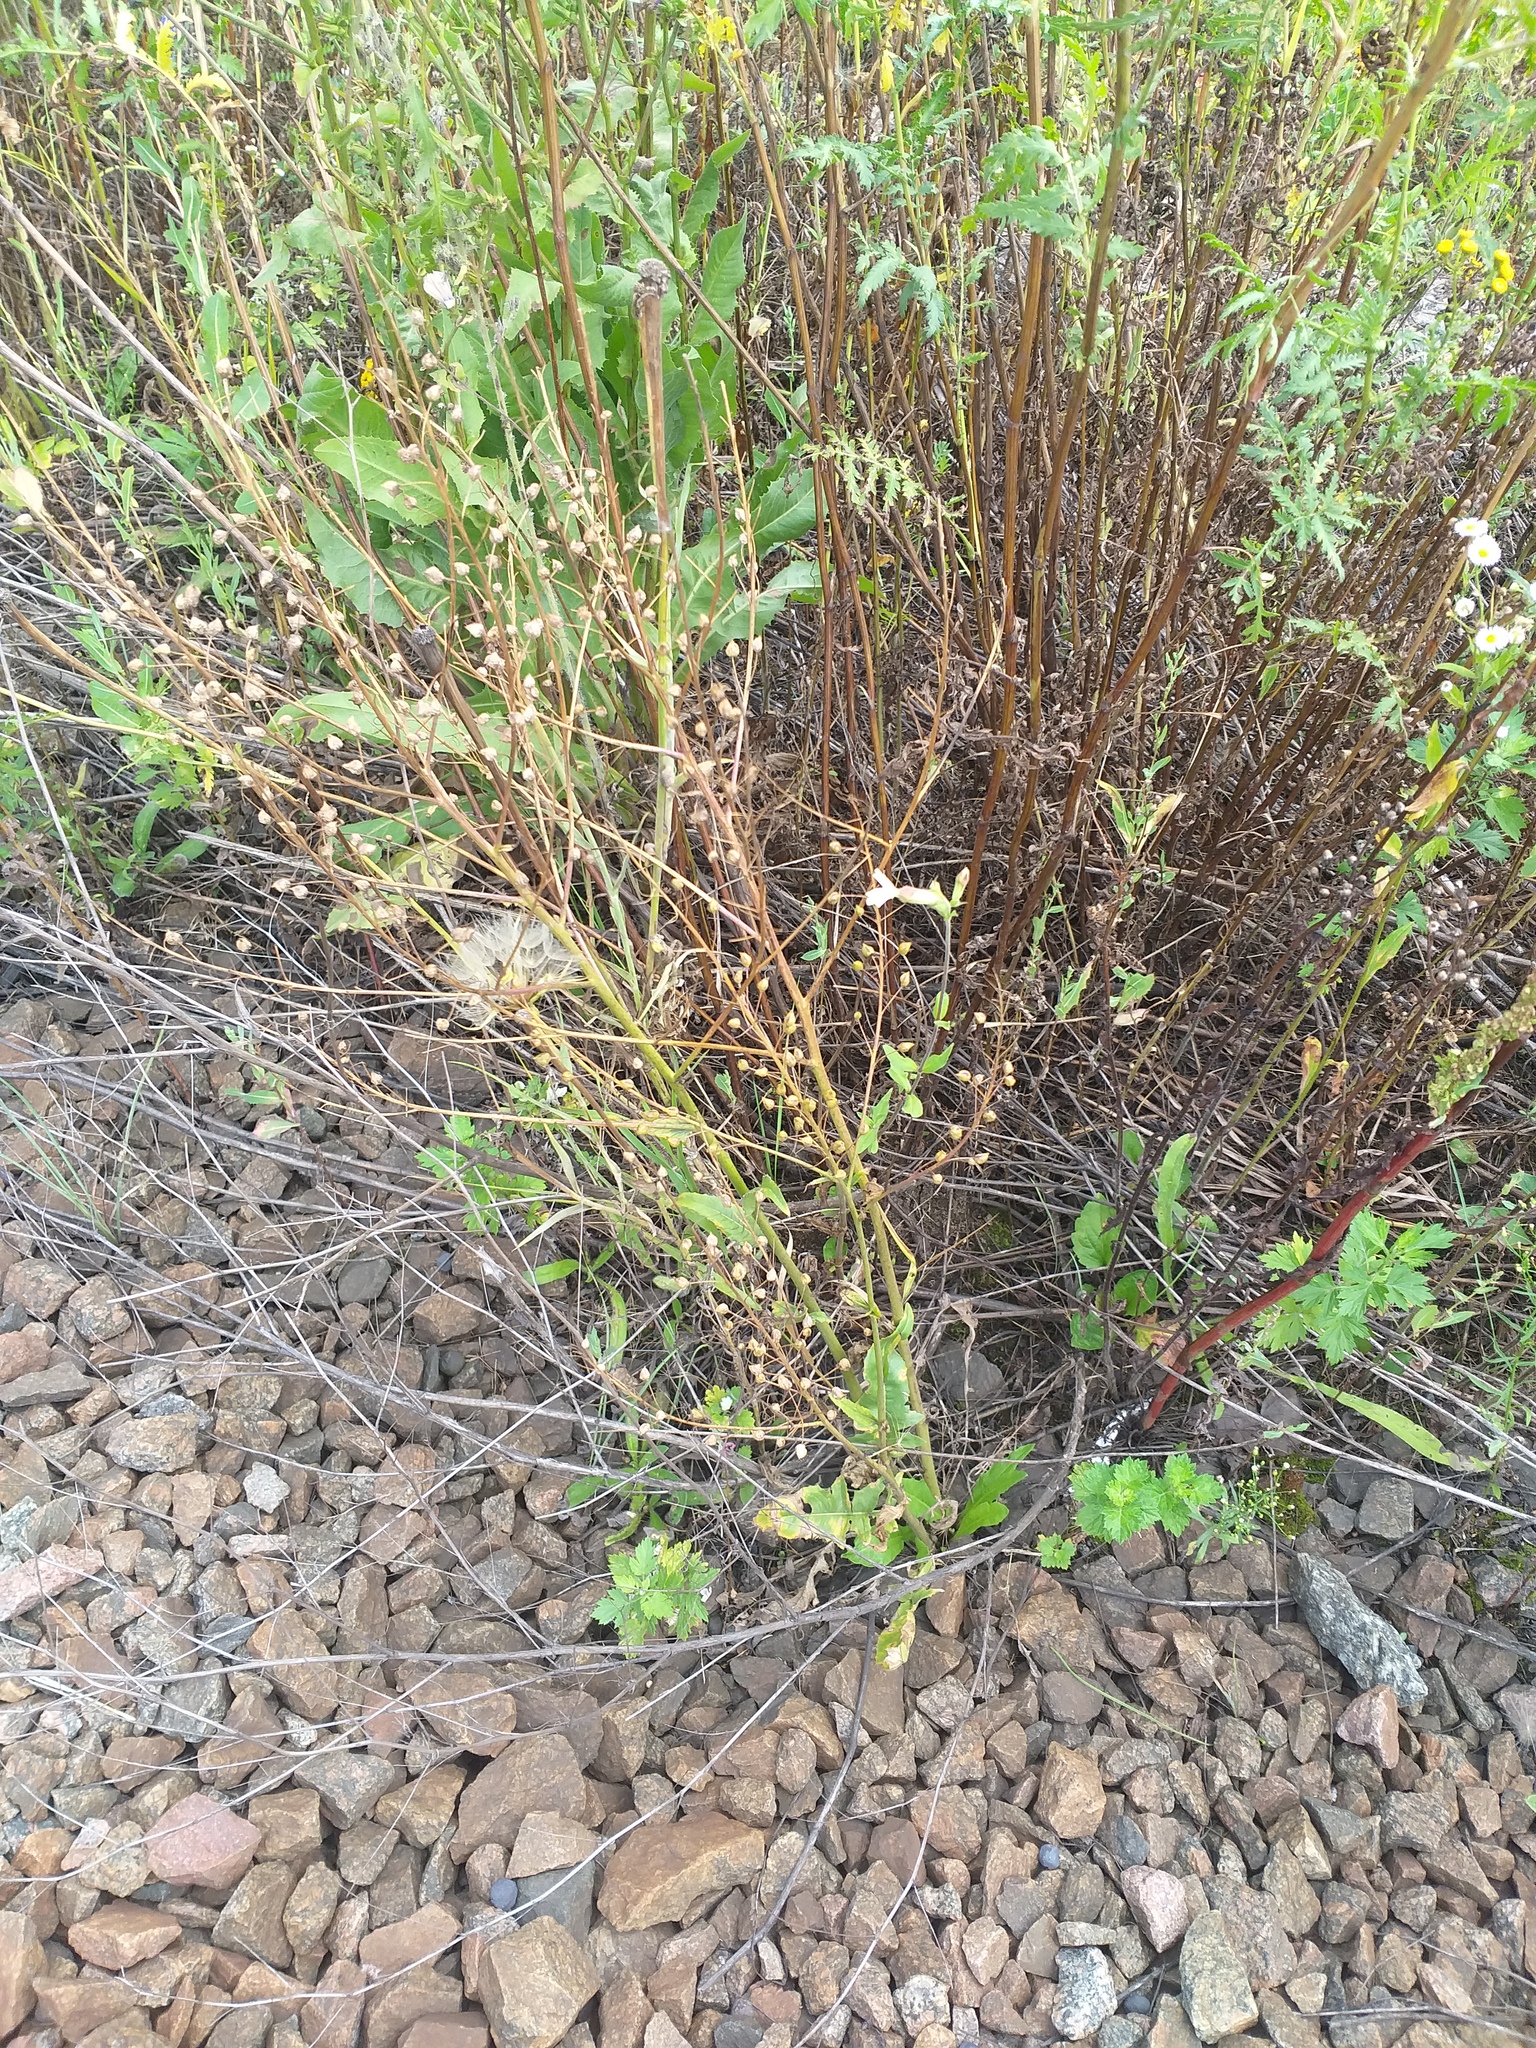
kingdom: Plantae
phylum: Tracheophyta
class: Magnoliopsida
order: Brassicales
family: Brassicaceae
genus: Bunias
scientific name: Bunias orientalis
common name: Warty-cabbage
